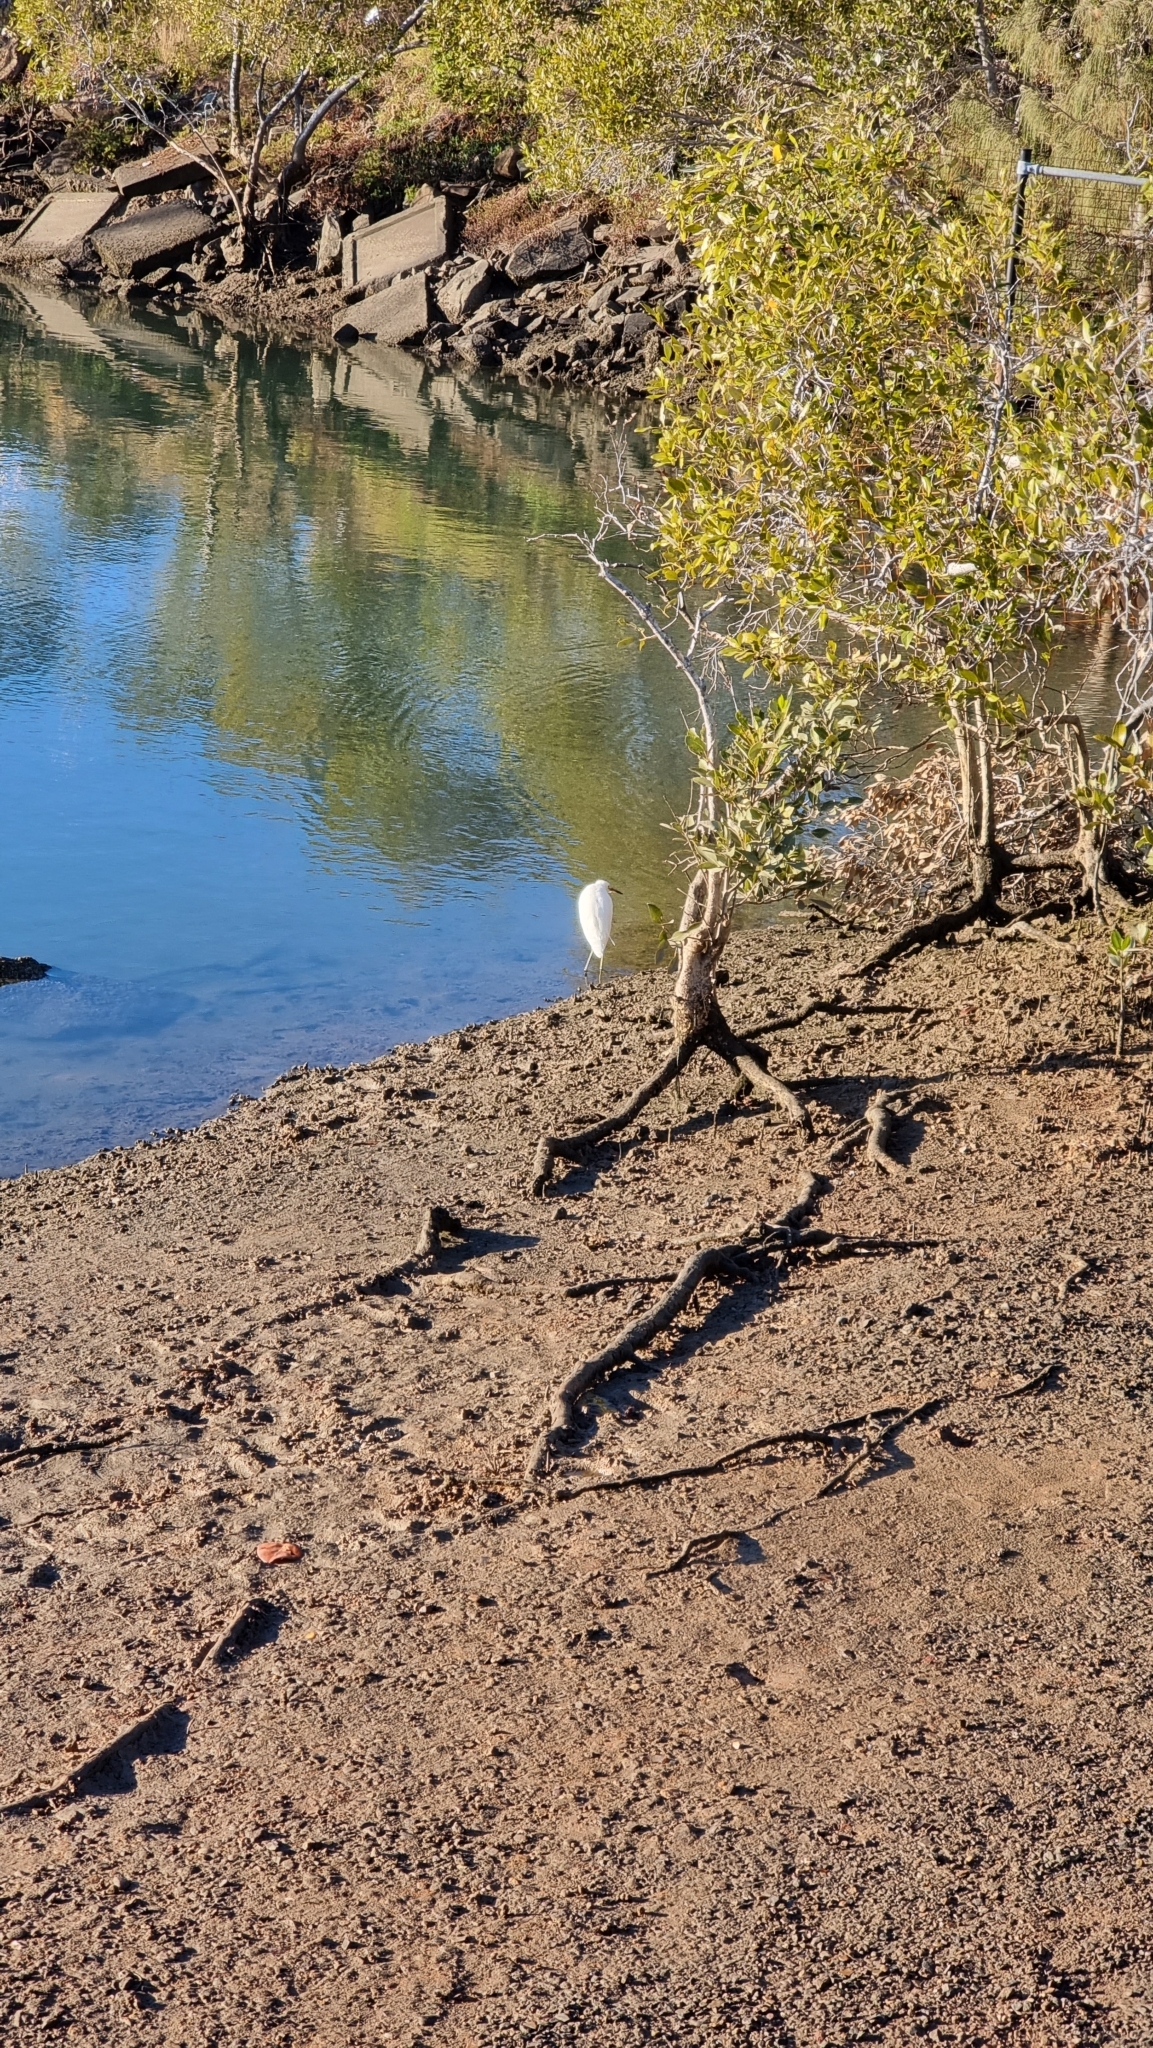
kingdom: Animalia
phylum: Chordata
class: Aves
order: Pelecaniformes
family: Ardeidae
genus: Egretta
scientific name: Egretta garzetta
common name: Little egret
